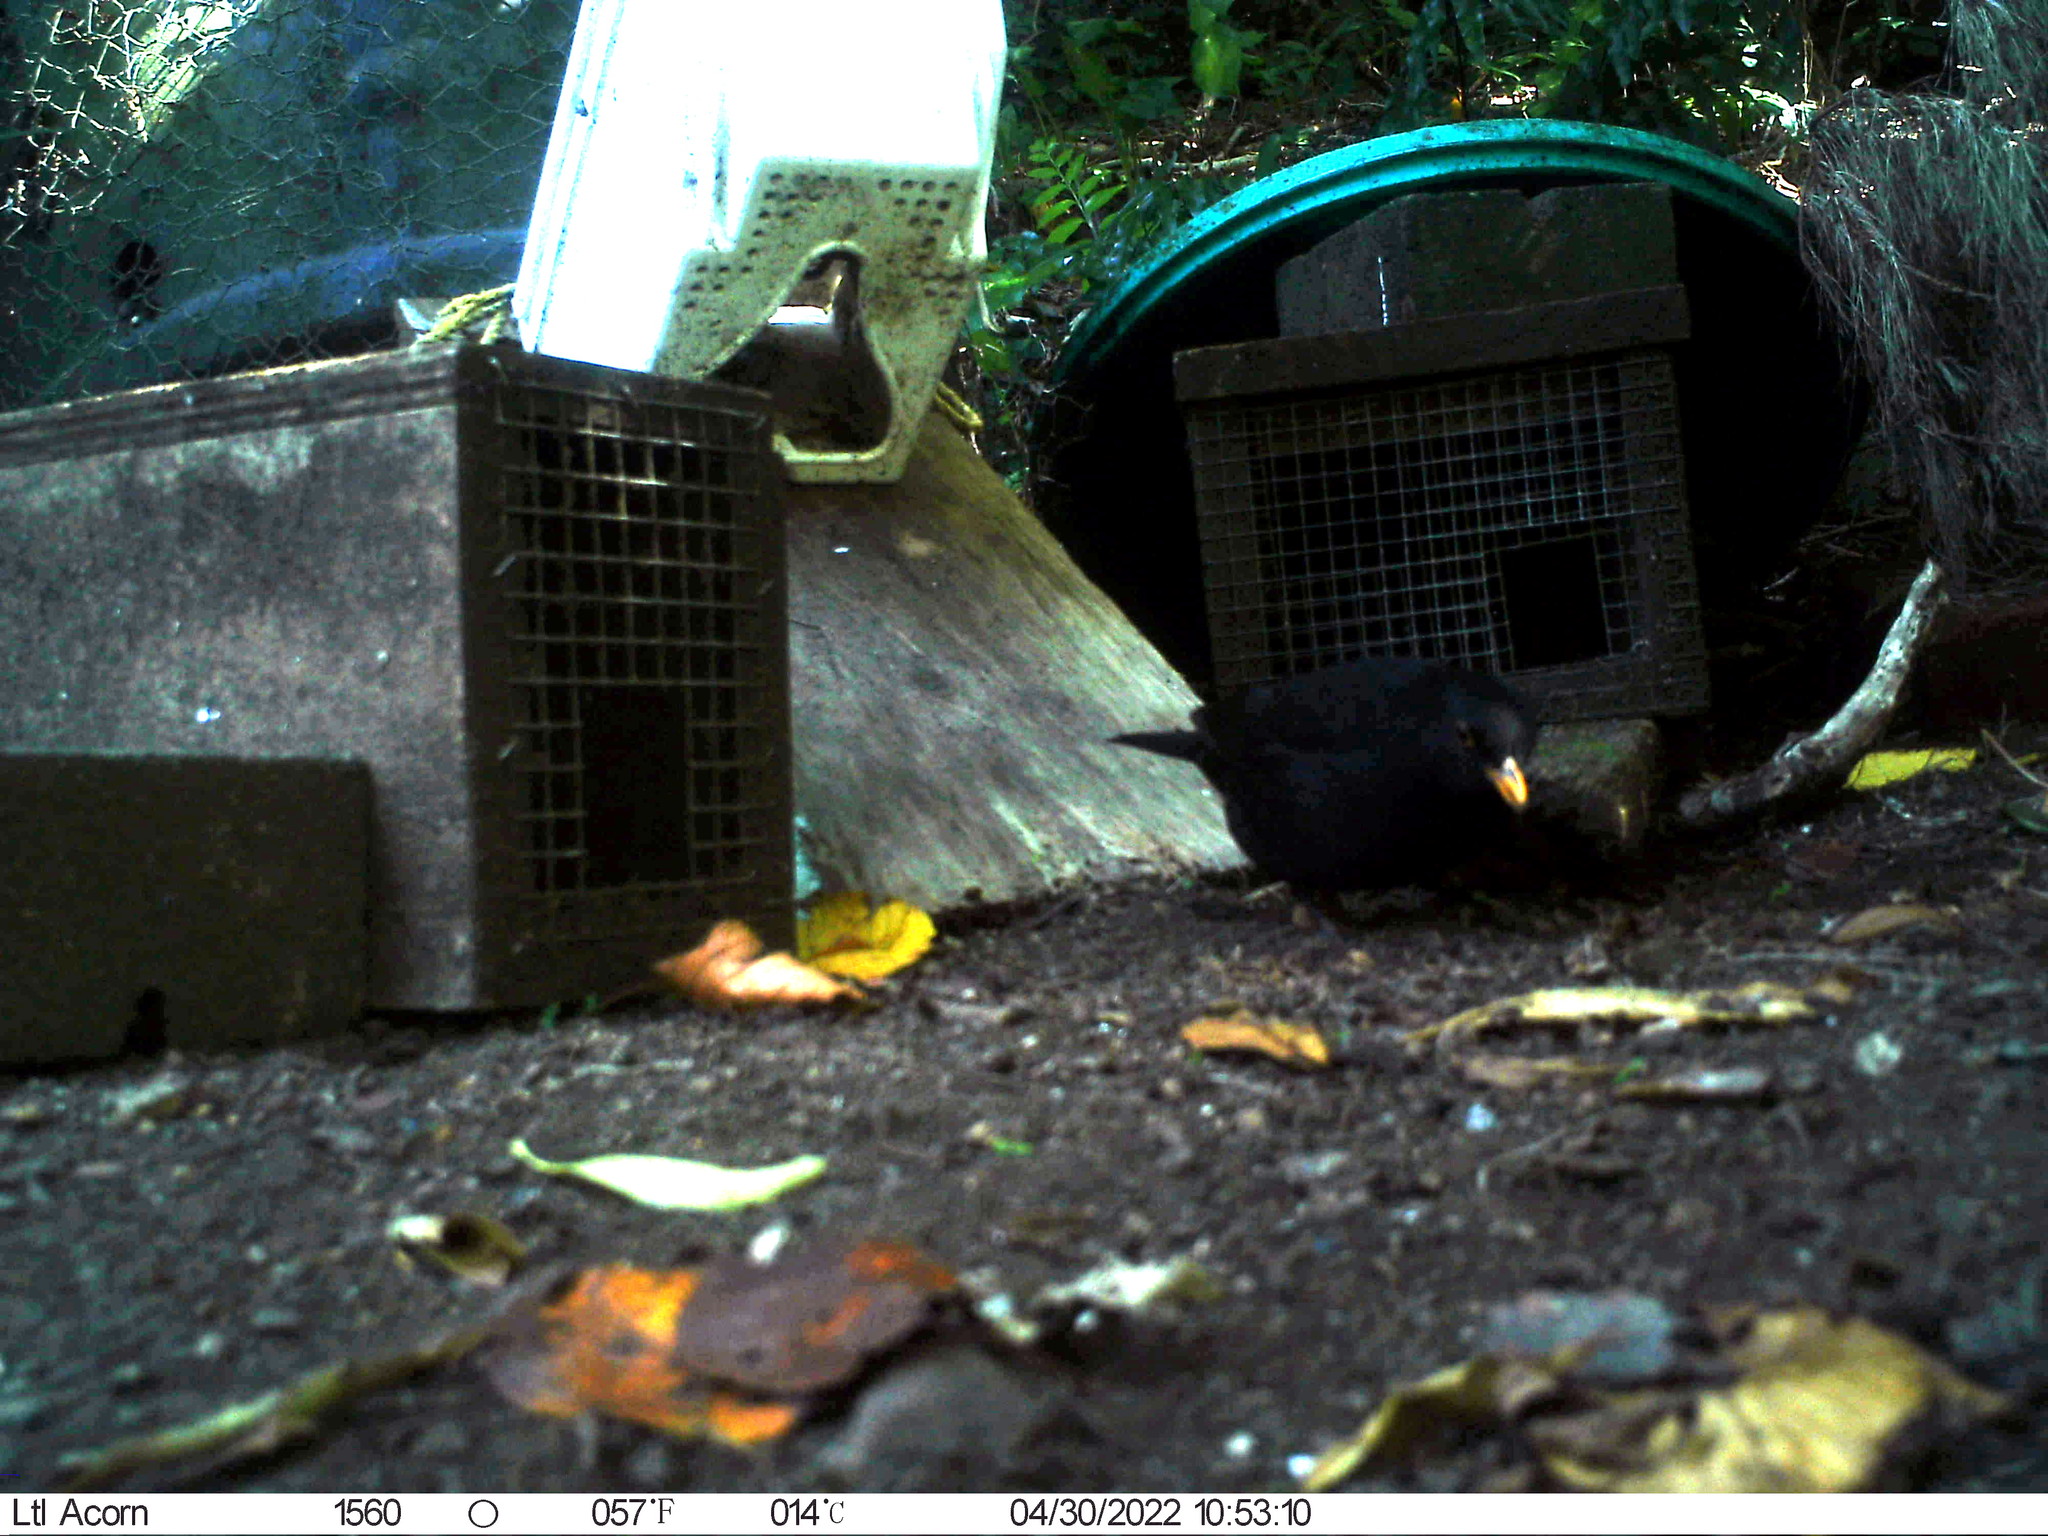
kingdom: Animalia
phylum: Chordata
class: Aves
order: Passeriformes
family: Turdidae
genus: Turdus
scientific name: Turdus merula
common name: Common blackbird
